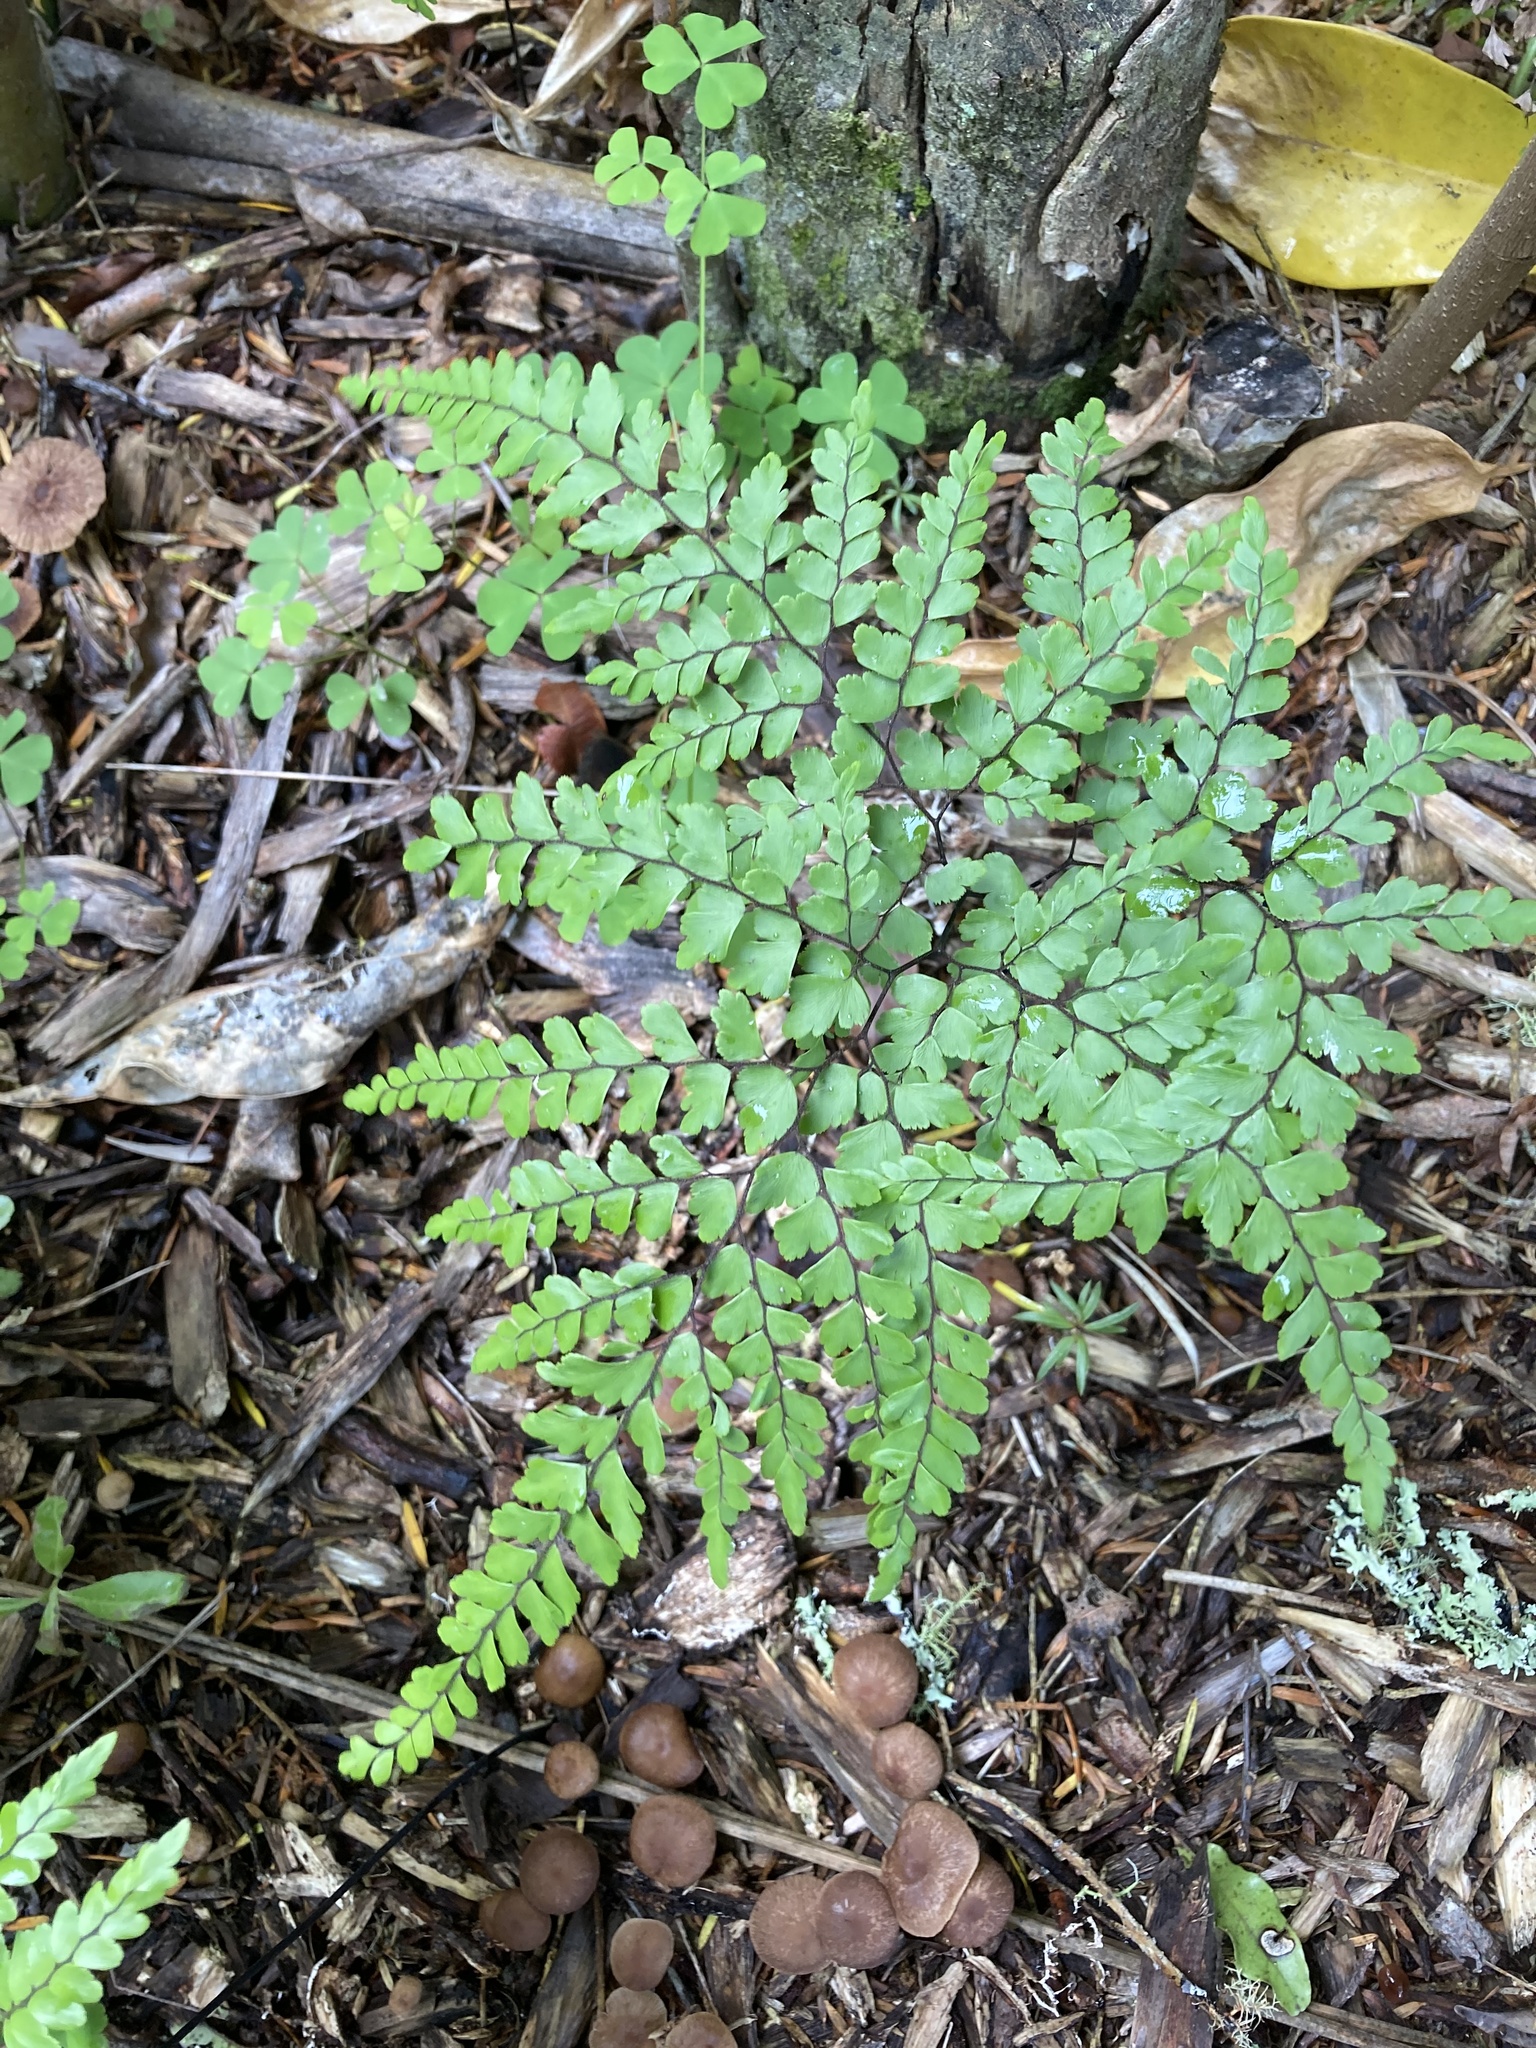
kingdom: Plantae
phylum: Tracheophyta
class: Polypodiopsida
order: Polypodiales
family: Pteridaceae
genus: Adiantum
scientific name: Adiantum formosum
